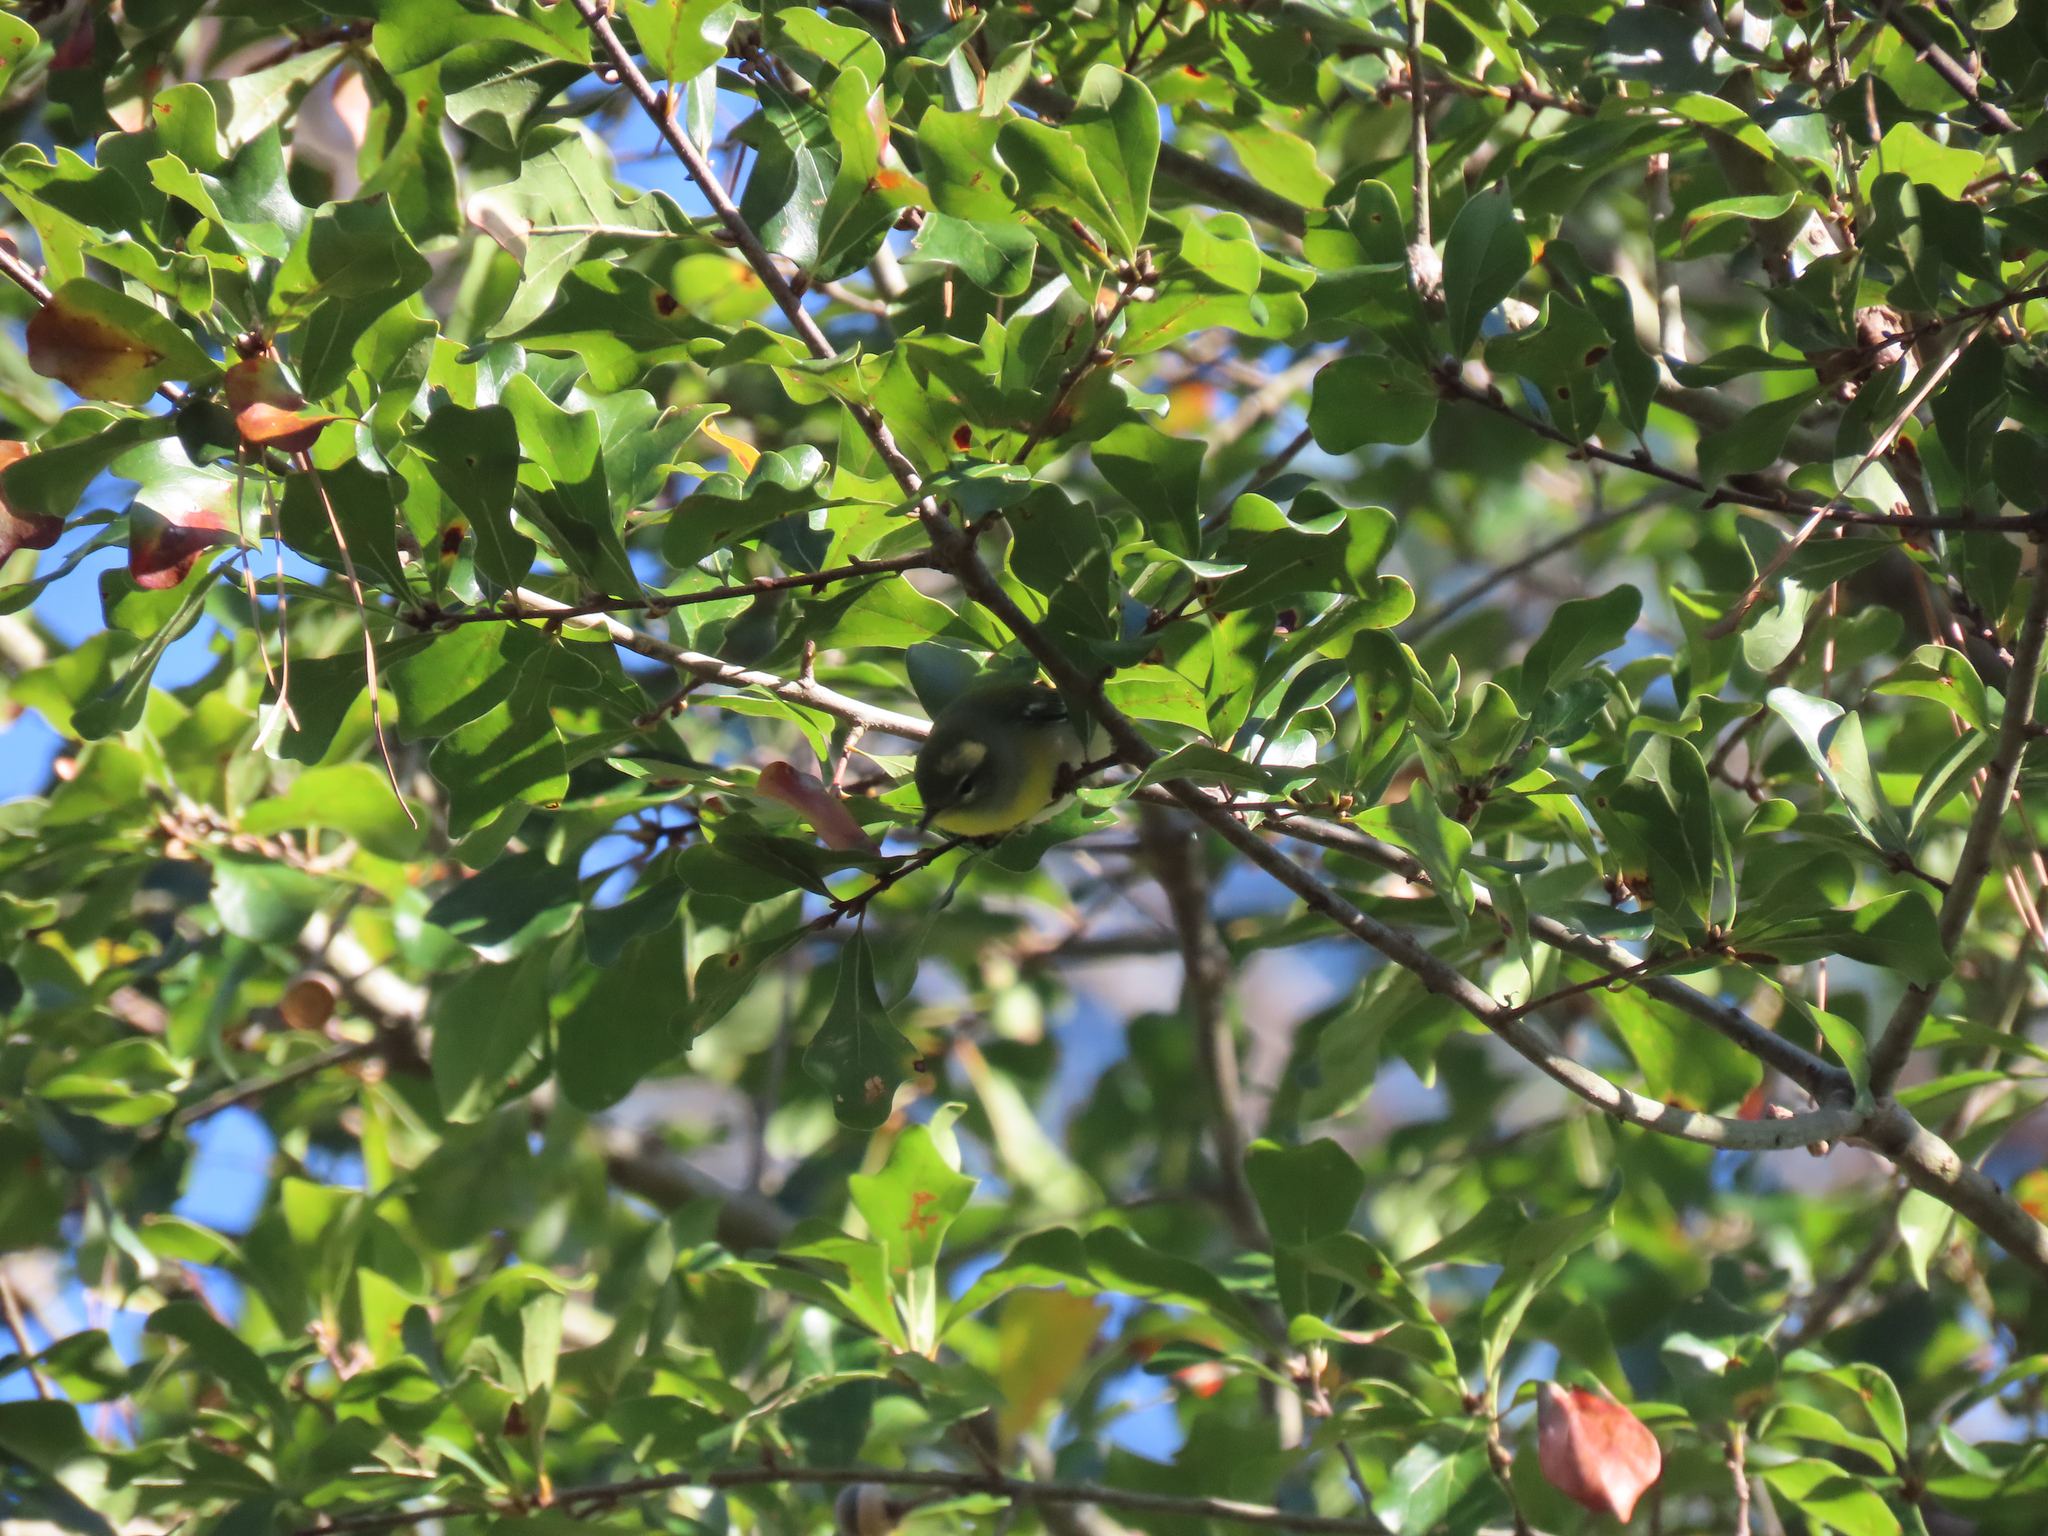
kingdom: Animalia
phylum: Chordata
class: Aves
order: Passeriformes
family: Parulidae
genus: Setophaga
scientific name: Setophaga americana
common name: Northern parula
